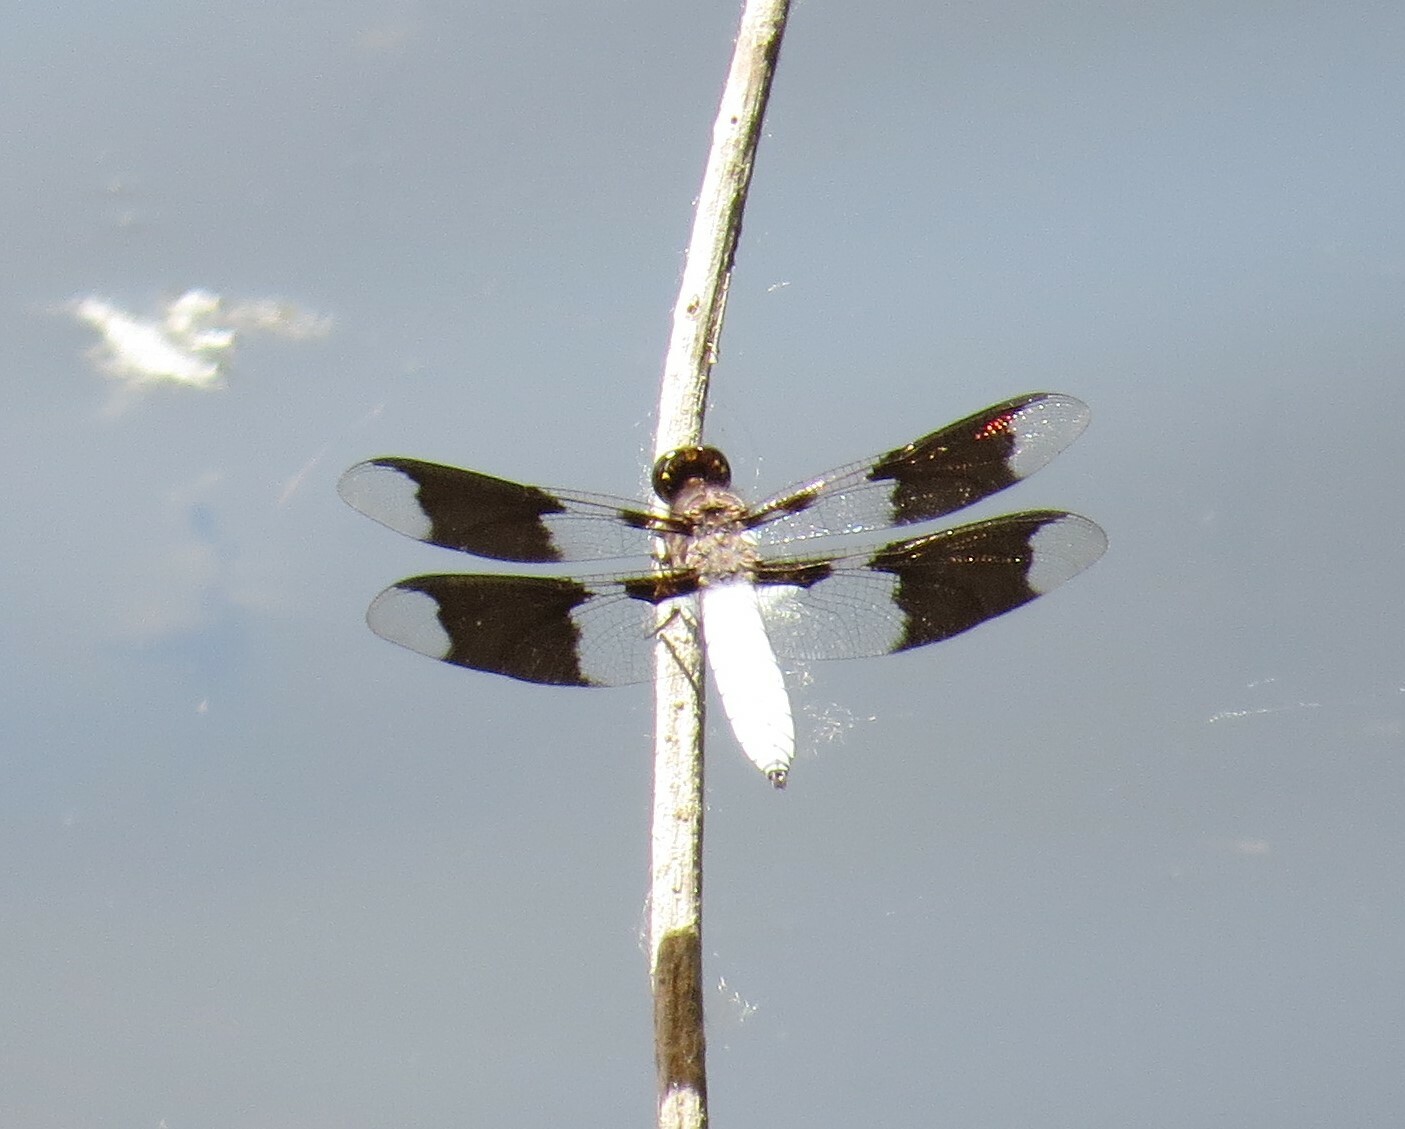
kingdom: Animalia
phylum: Arthropoda
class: Insecta
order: Odonata
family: Libellulidae
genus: Plathemis
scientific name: Plathemis lydia
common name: Common whitetail
